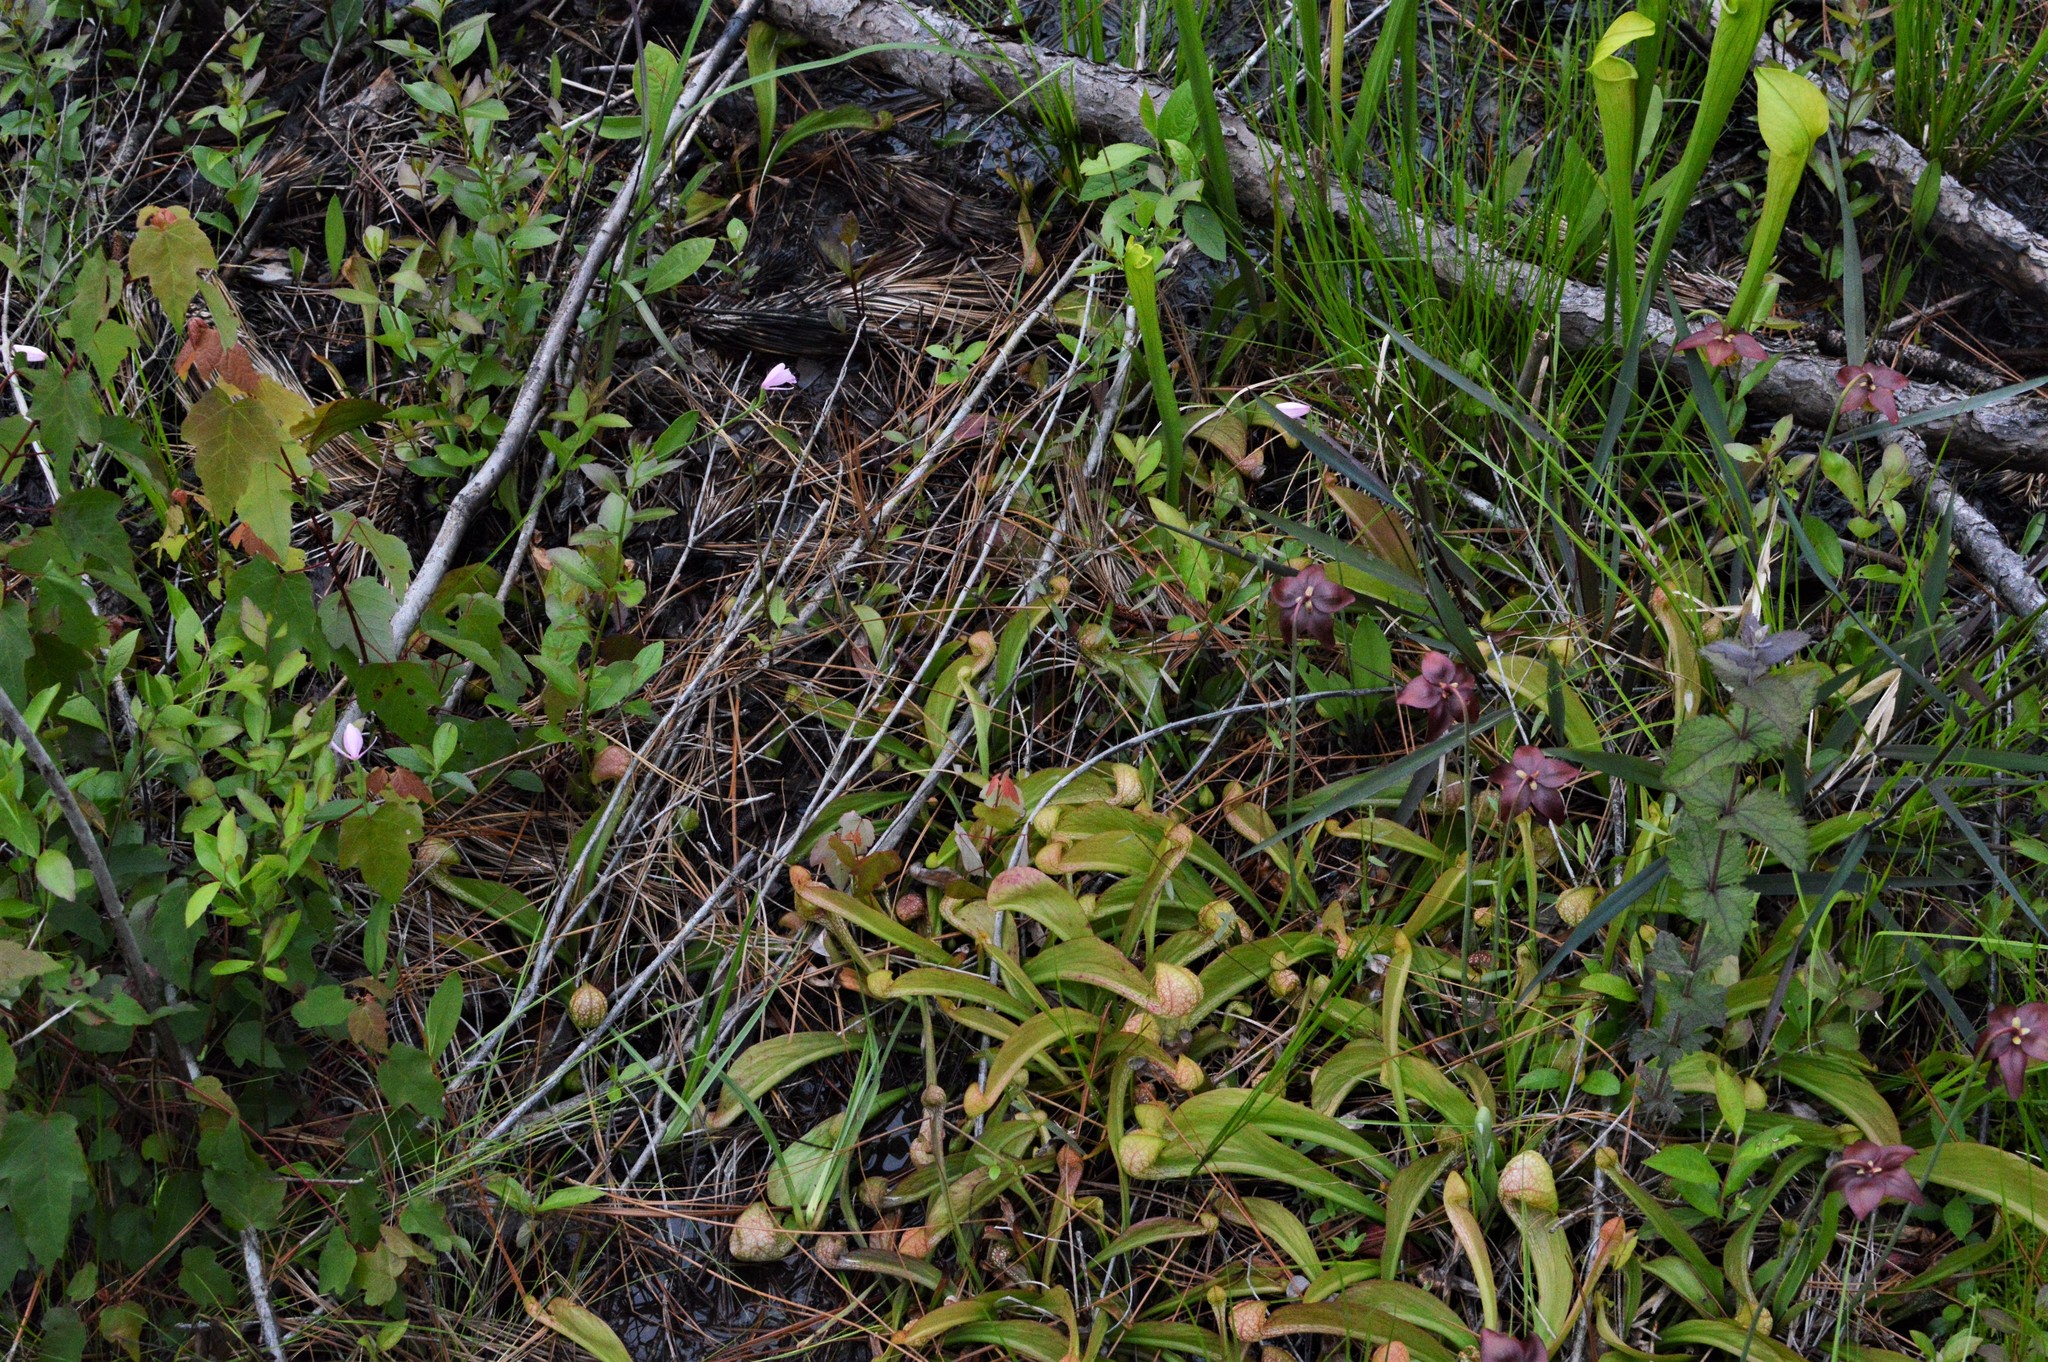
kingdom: Plantae
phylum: Tracheophyta
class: Magnoliopsida
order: Ericales
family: Sarraceniaceae
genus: Sarracenia
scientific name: Sarracenia psittacina
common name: Parrot pitcherplant
